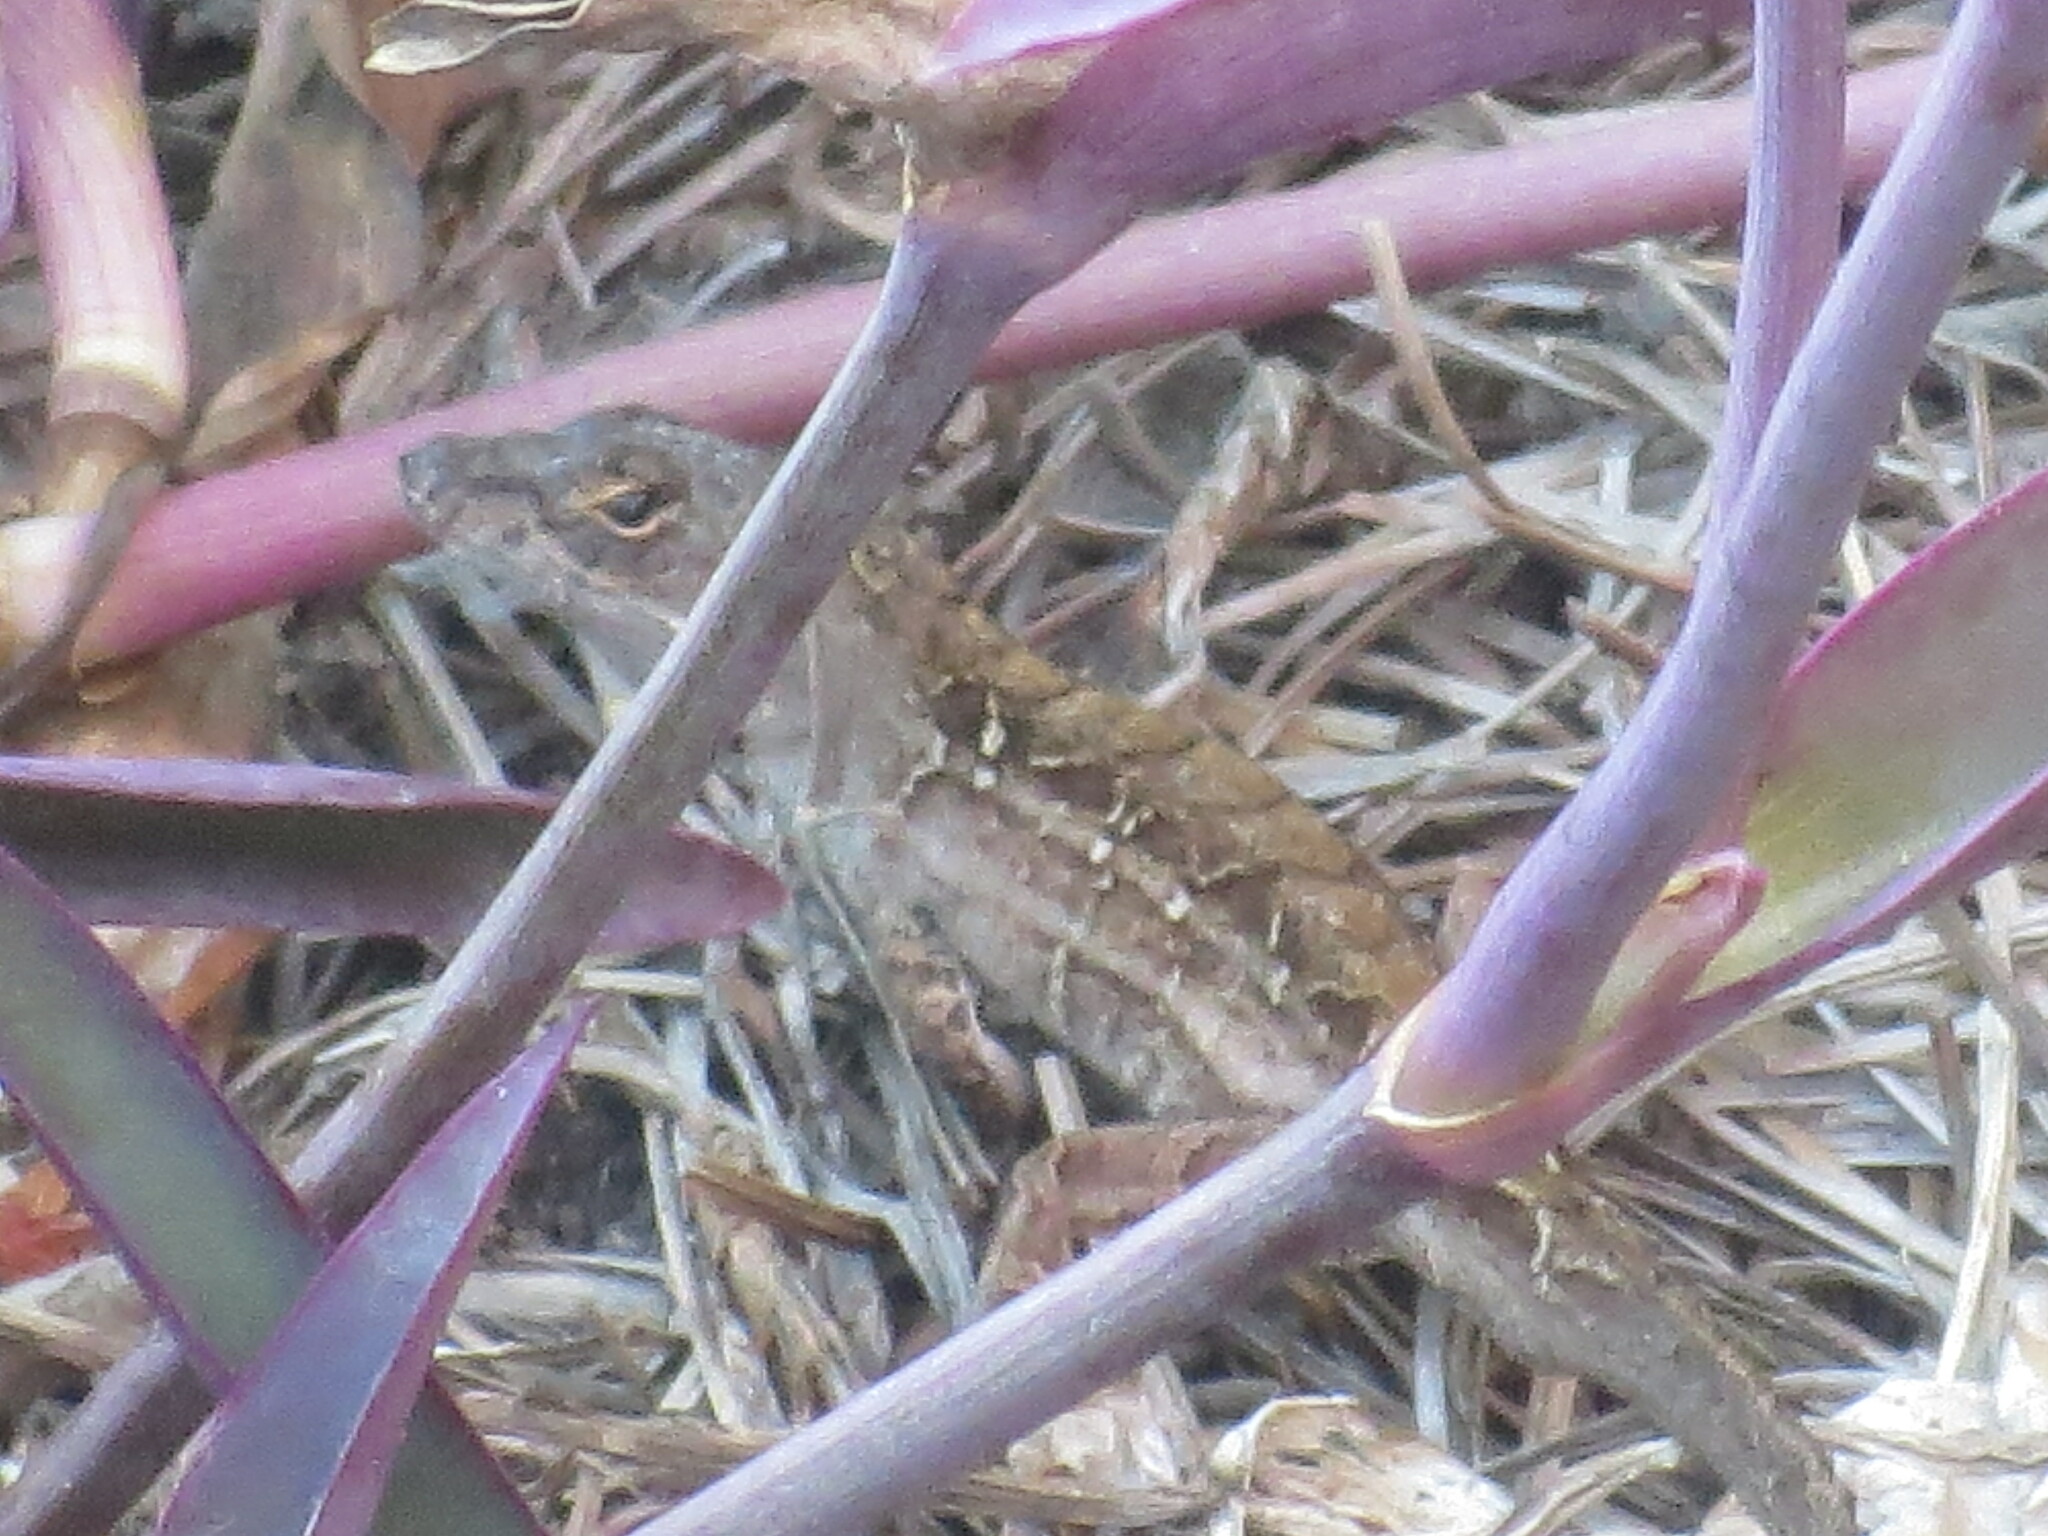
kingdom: Animalia
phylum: Chordata
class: Squamata
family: Dactyloidae
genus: Anolis
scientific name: Anolis sagrei
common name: Brown anole
